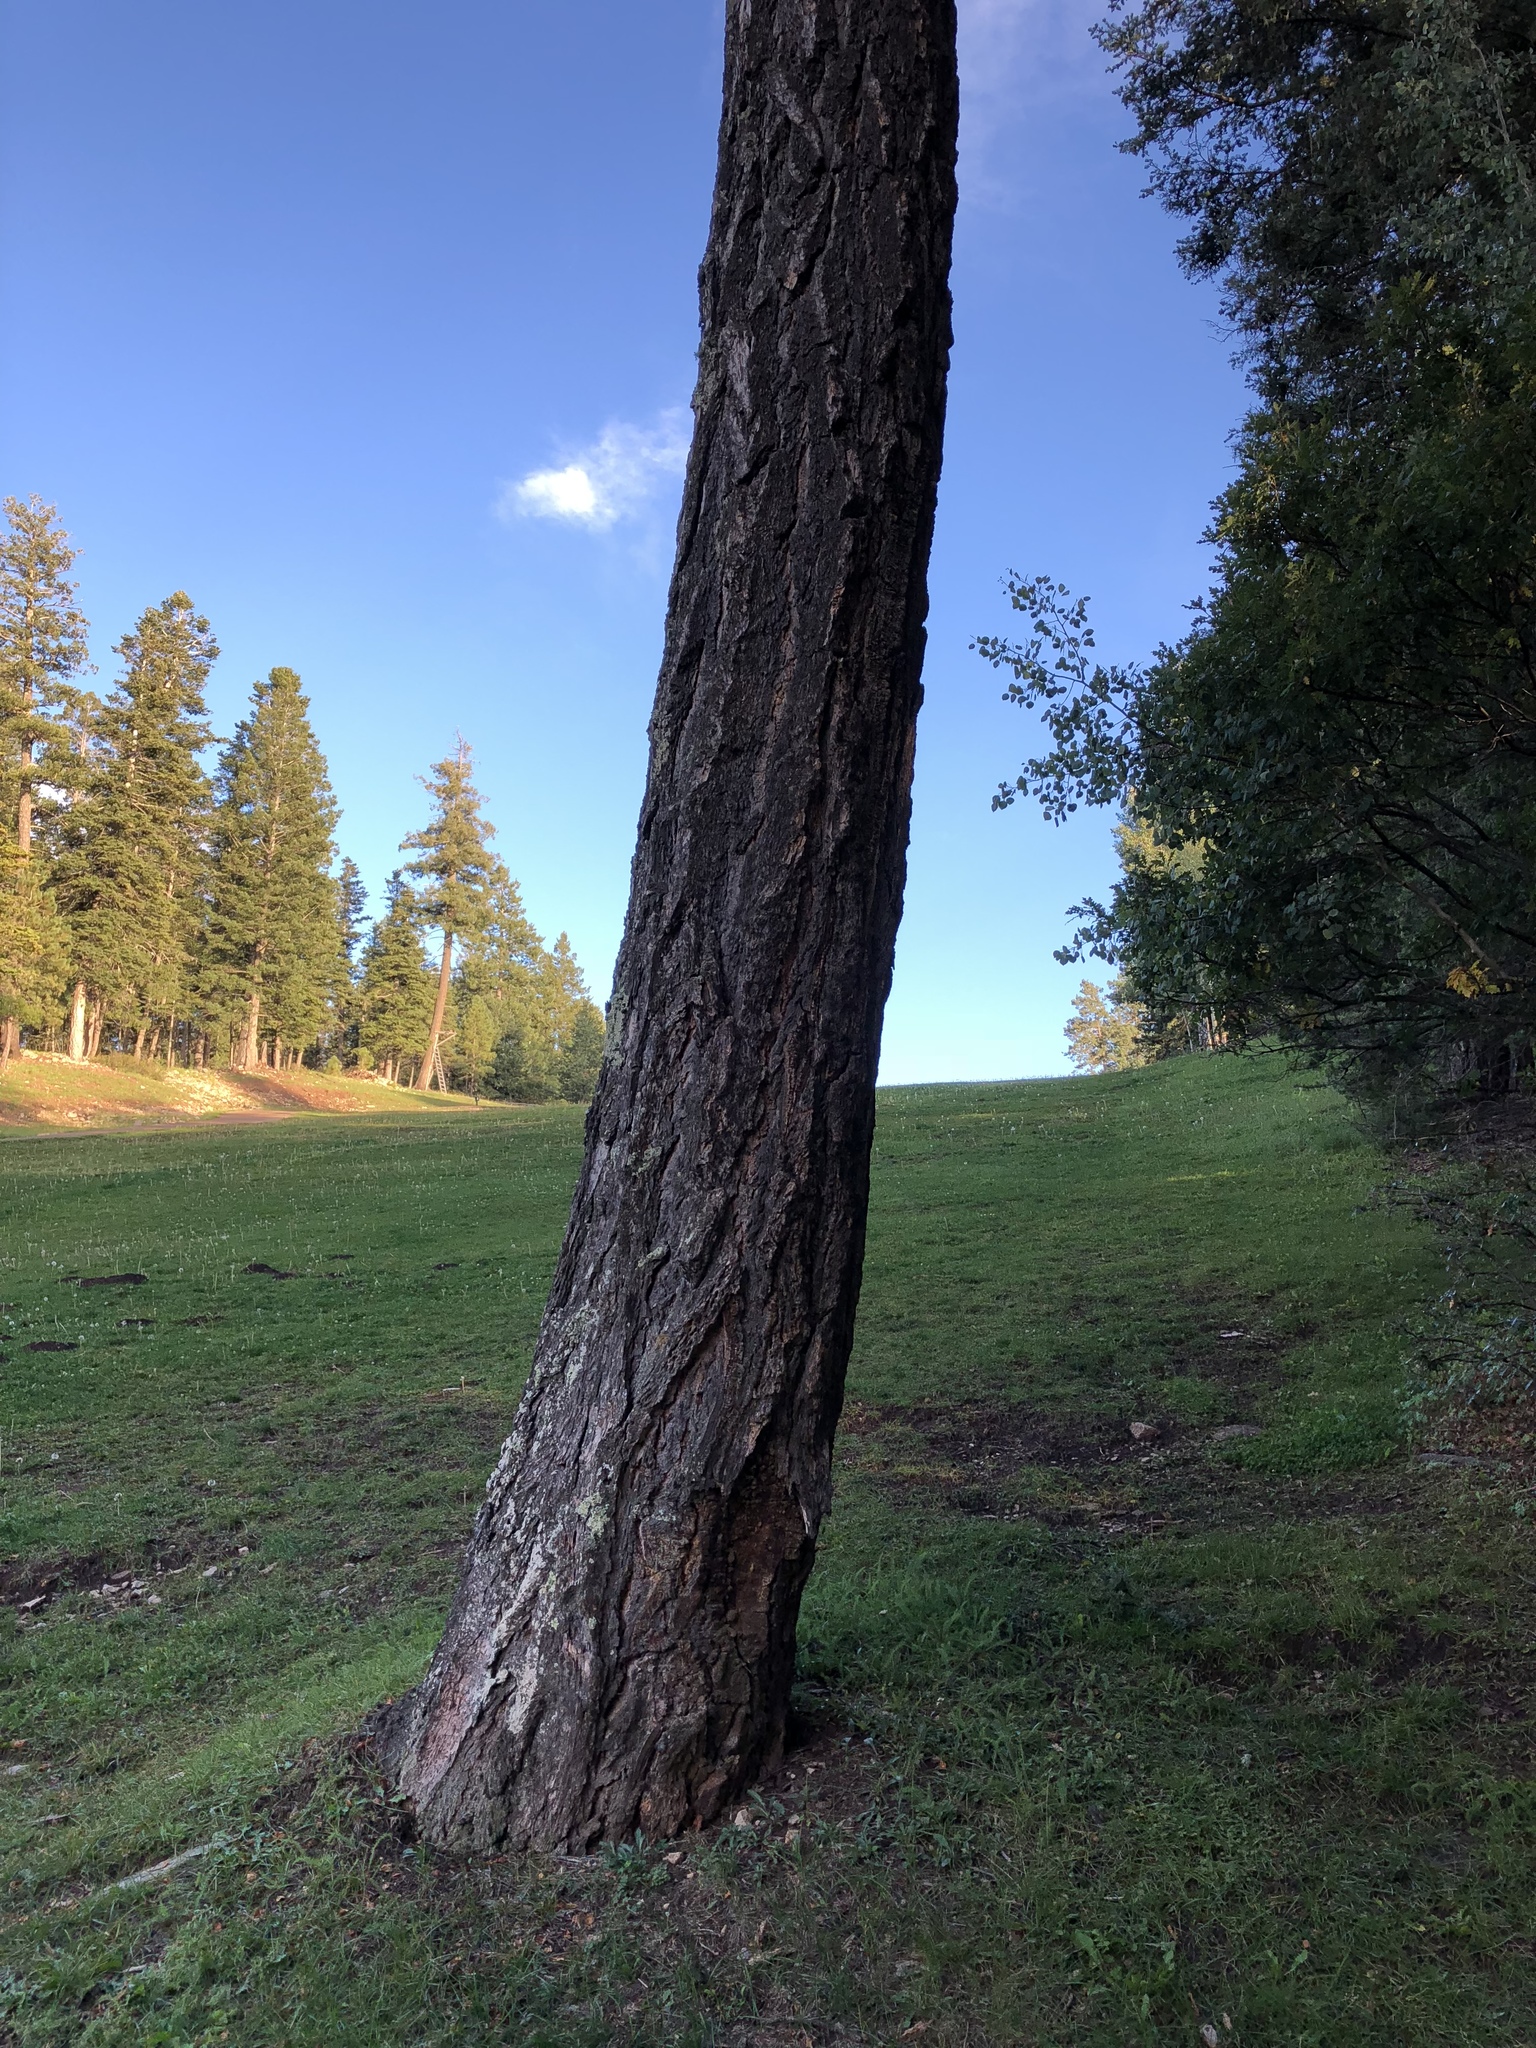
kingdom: Plantae
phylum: Tracheophyta
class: Pinopsida
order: Pinales
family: Pinaceae
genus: Pseudotsuga
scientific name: Pseudotsuga menziesii
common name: Douglas fir
